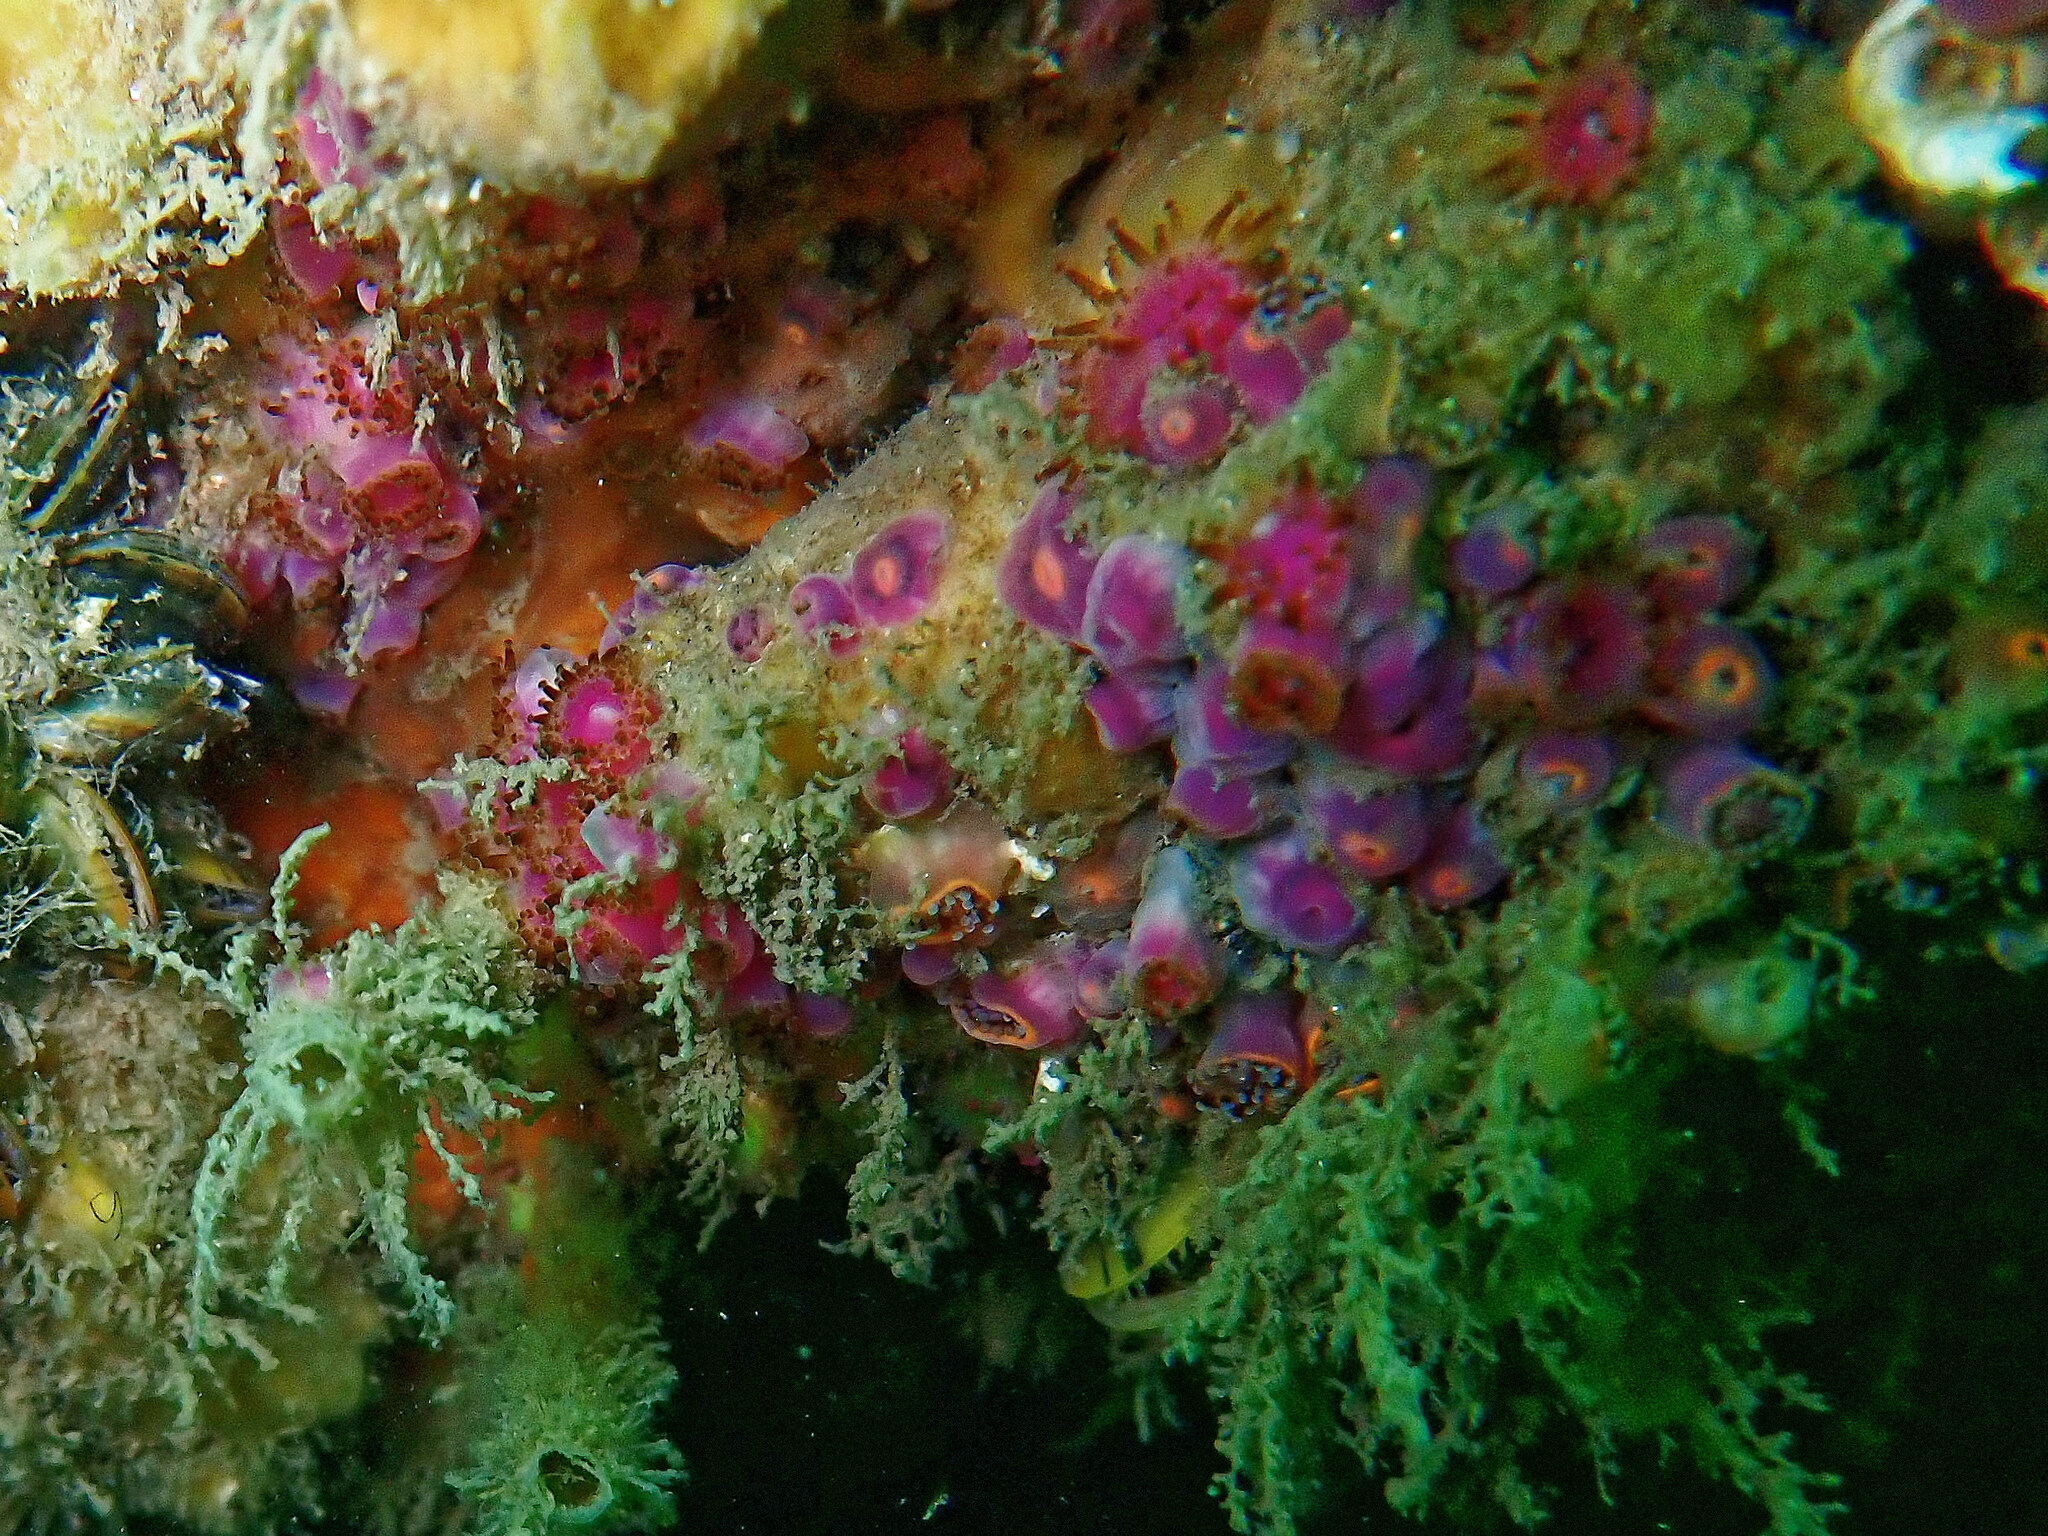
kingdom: Animalia
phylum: Cnidaria
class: Anthozoa
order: Corallimorpharia
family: Corallimorphidae
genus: Corynactis
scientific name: Corynactis viridis
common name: Jewel anemone
